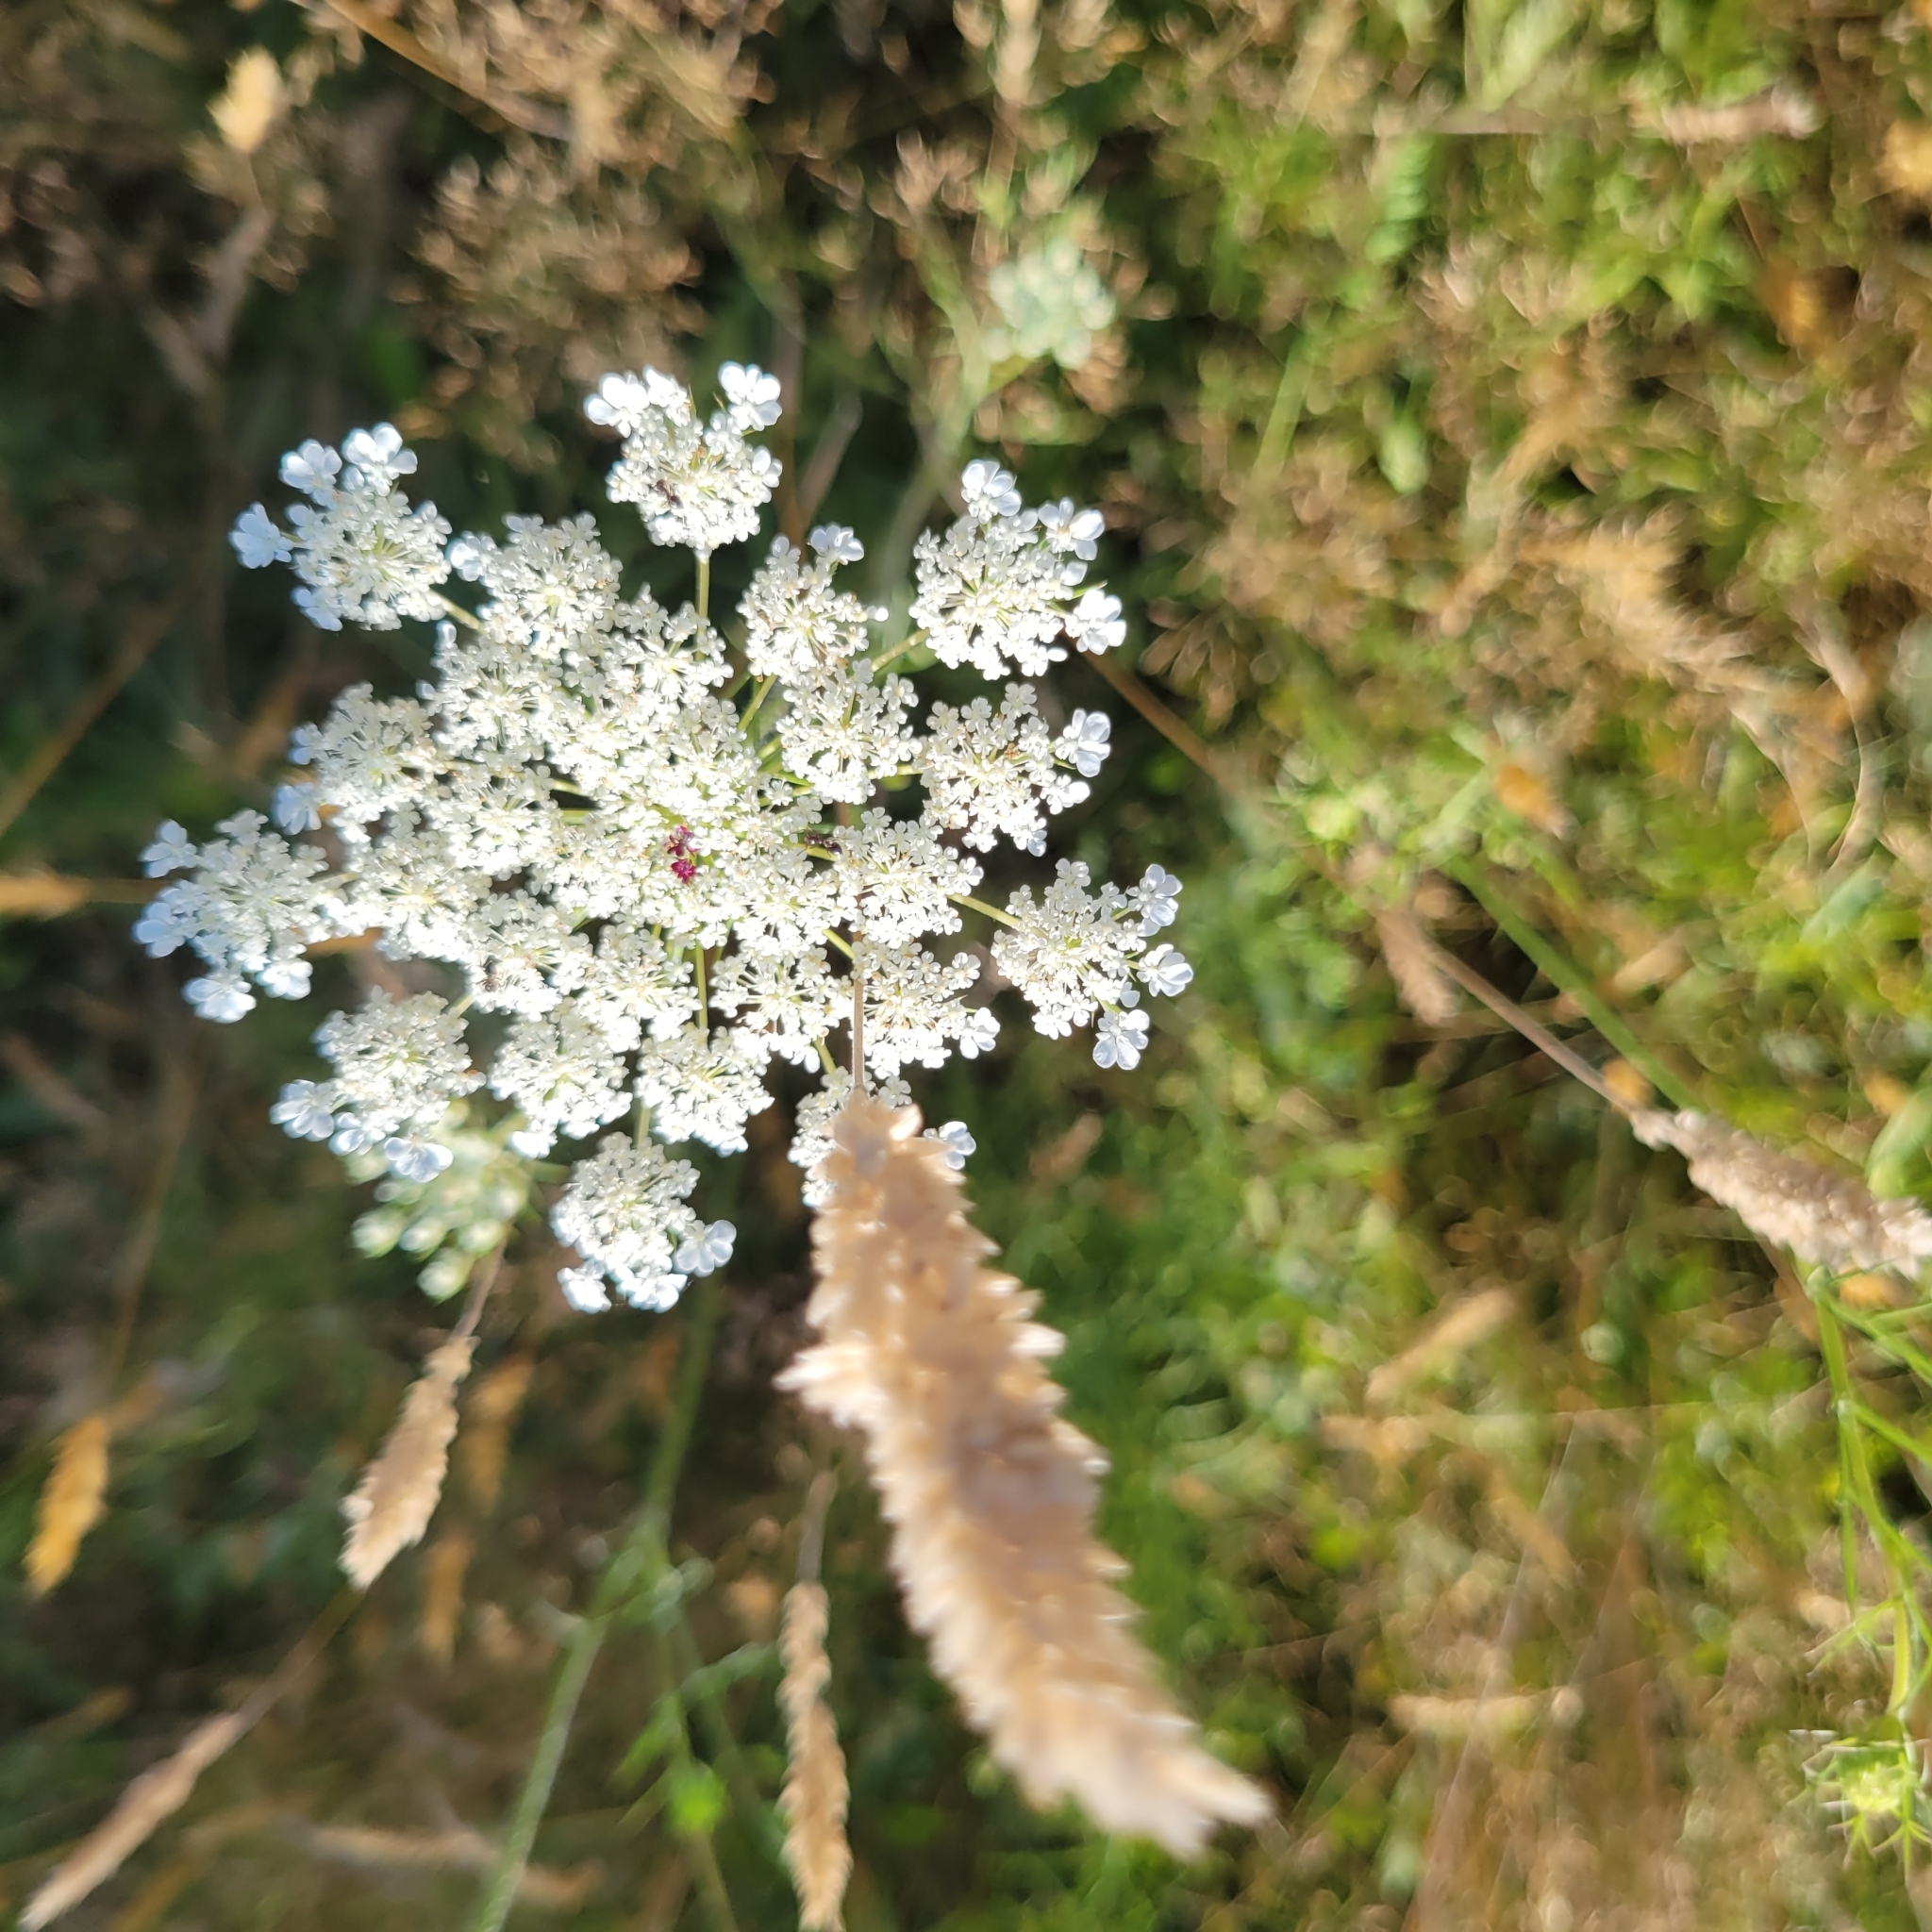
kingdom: Plantae
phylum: Tracheophyta
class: Magnoliopsida
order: Apiales
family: Apiaceae
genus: Daucus
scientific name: Daucus carota
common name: Wild carrot
